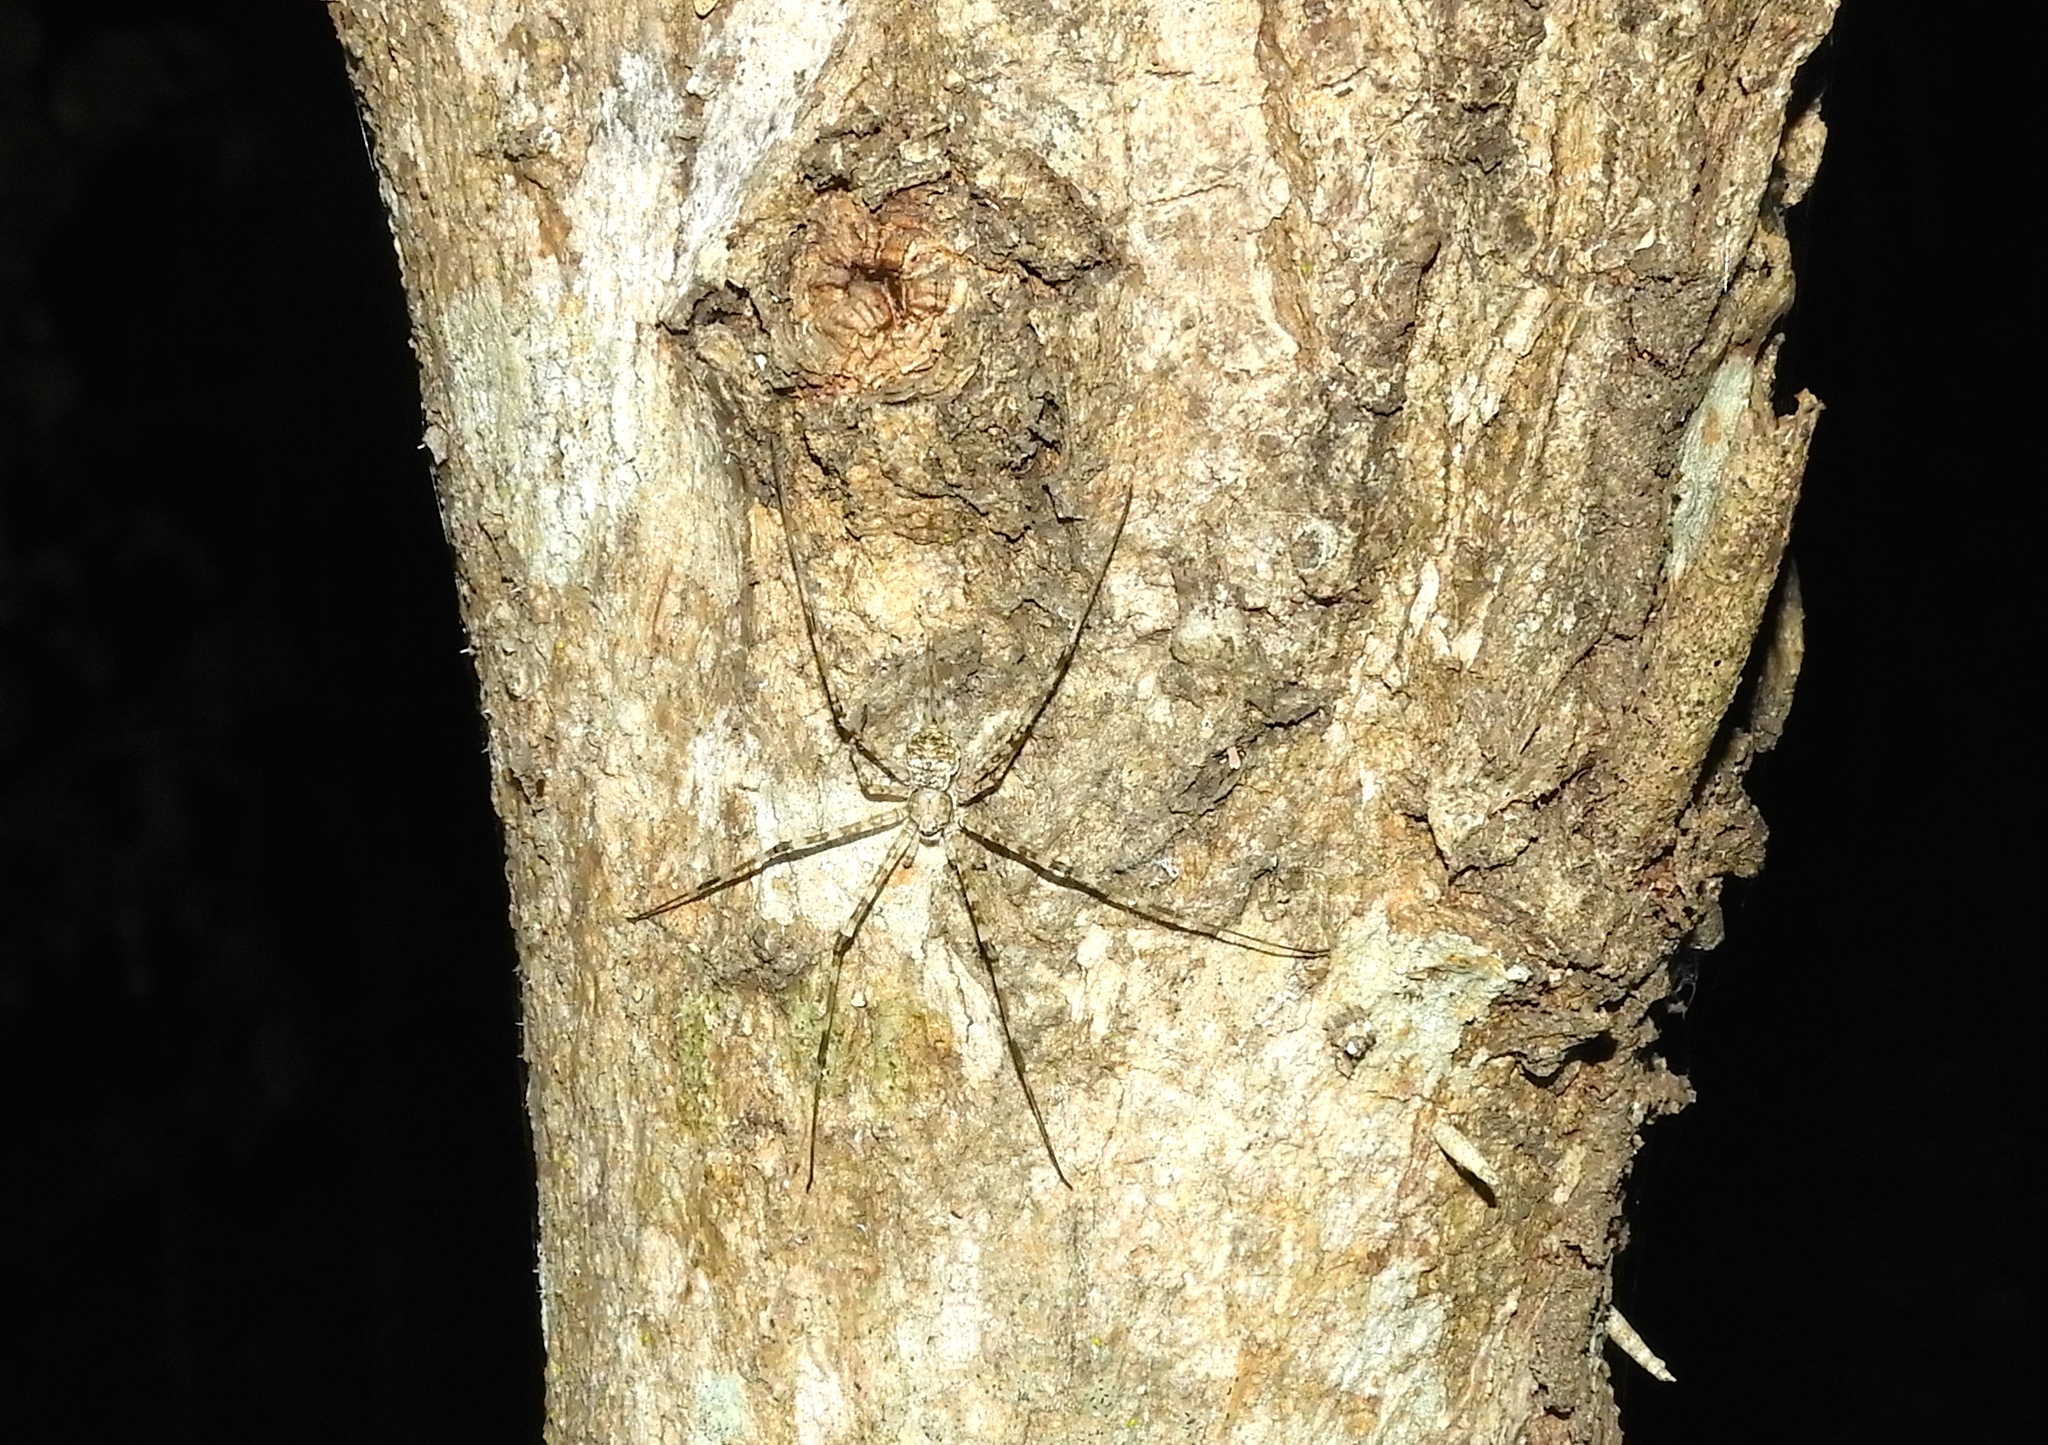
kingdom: Animalia
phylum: Arthropoda
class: Arachnida
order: Araneae
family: Hersiliidae
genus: Neotama
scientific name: Neotama mexicana
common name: Tree trunk spiders
